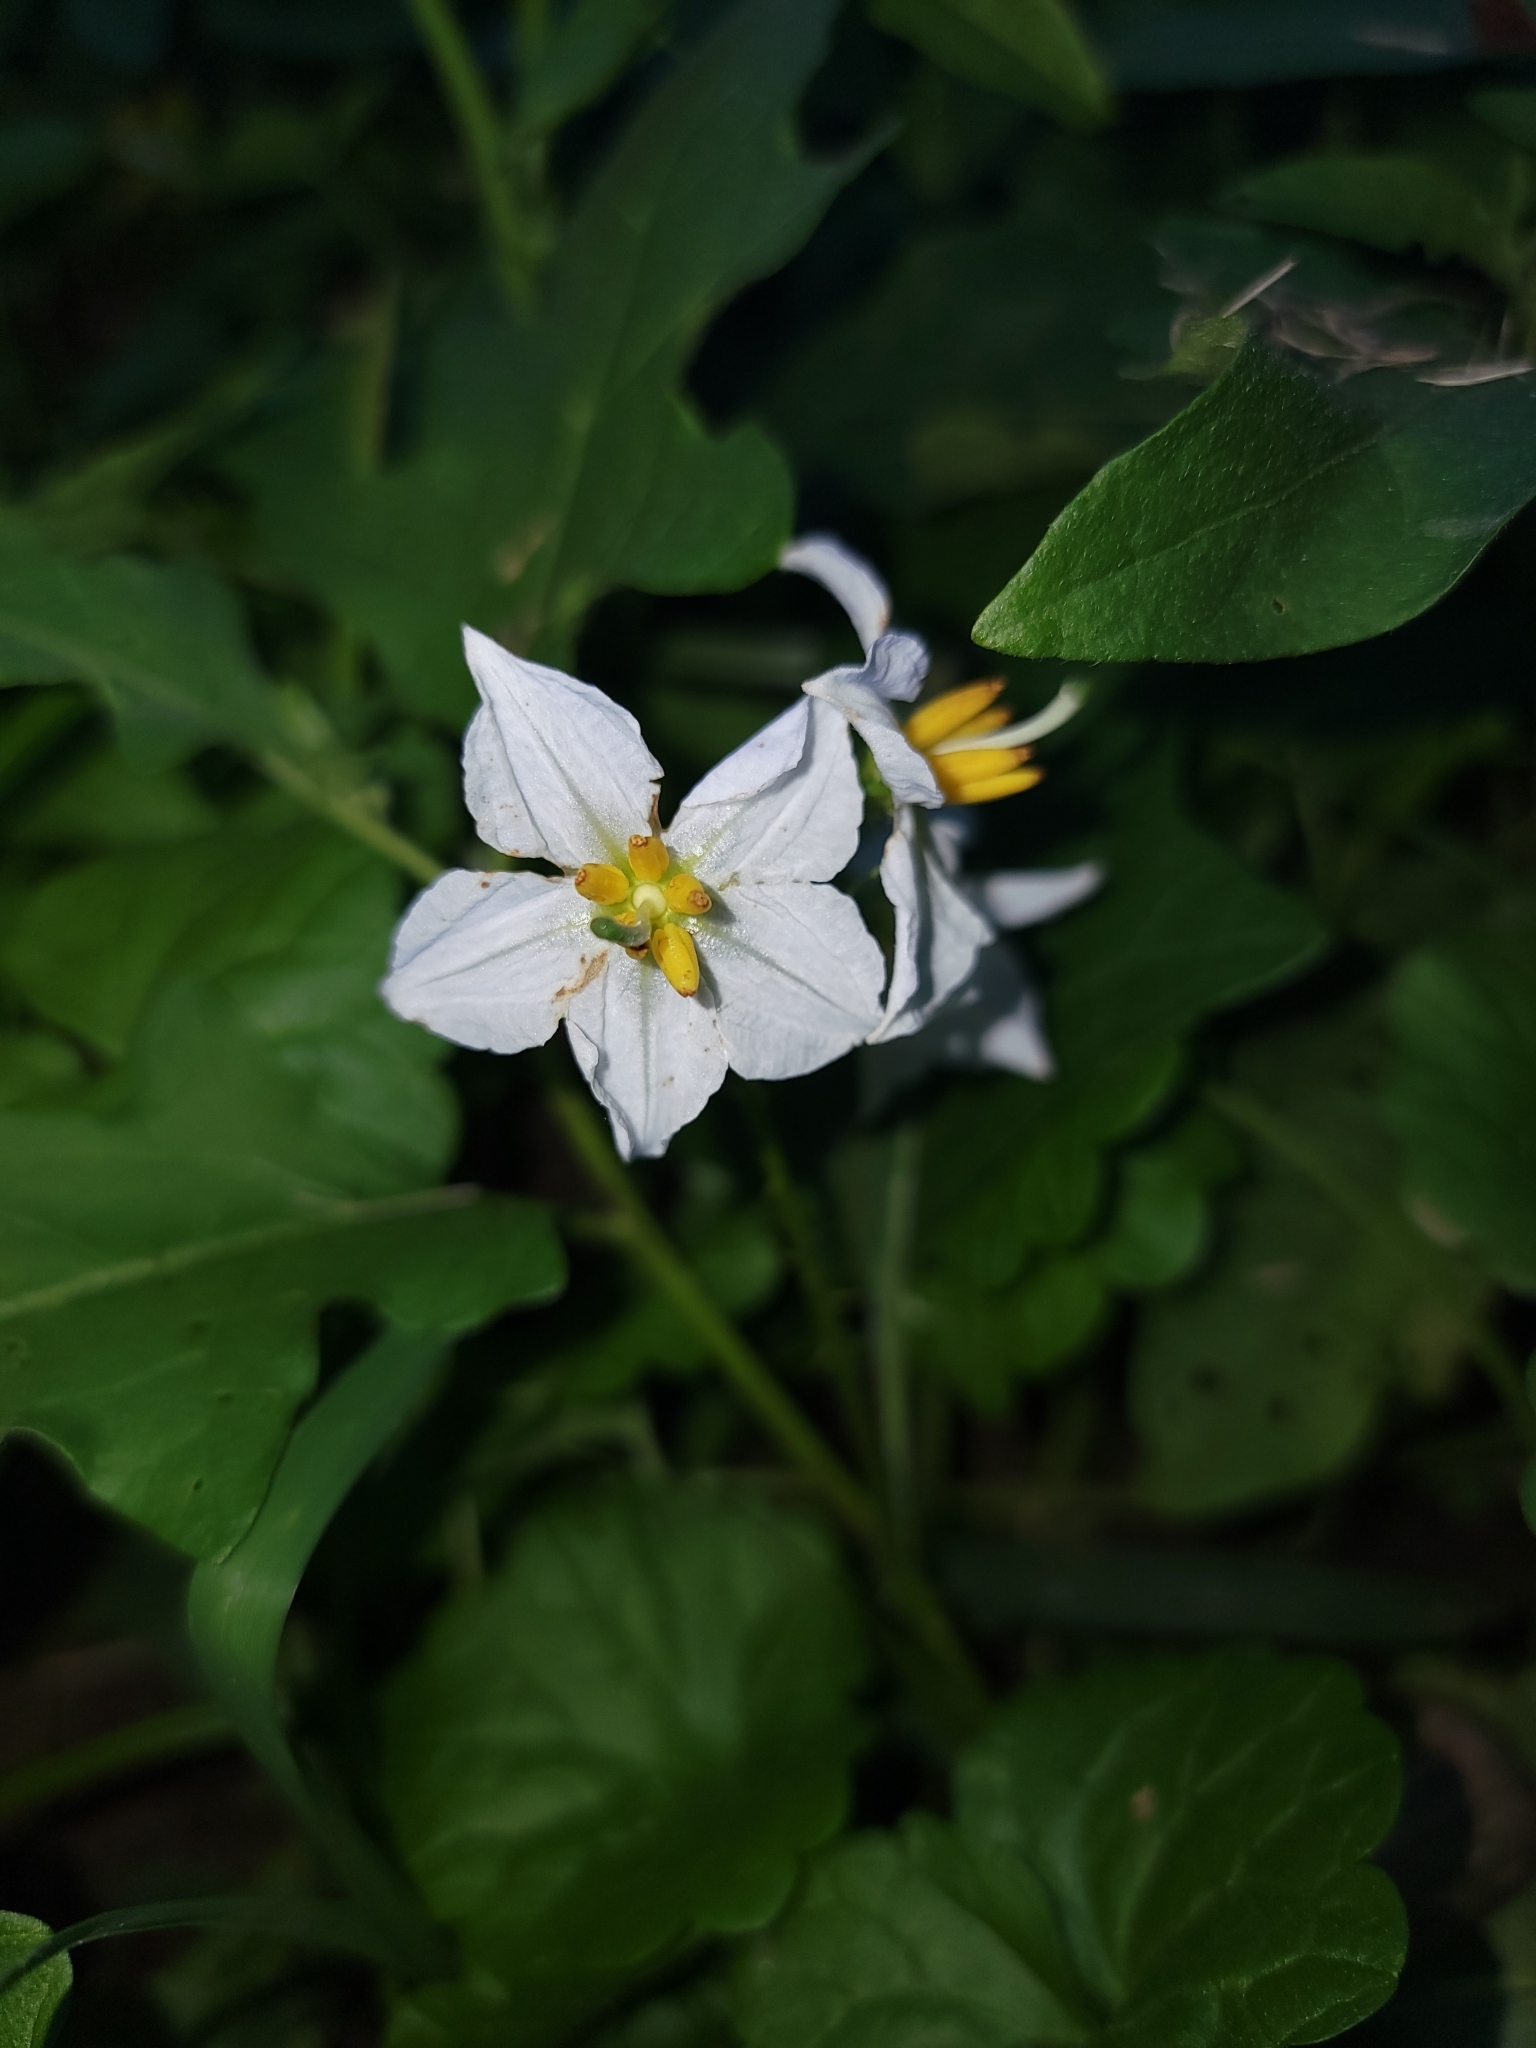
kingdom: Plantae
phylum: Tracheophyta
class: Magnoliopsida
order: Solanales
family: Solanaceae
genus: Solanum
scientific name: Solanum carolinense
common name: Horse-nettle
